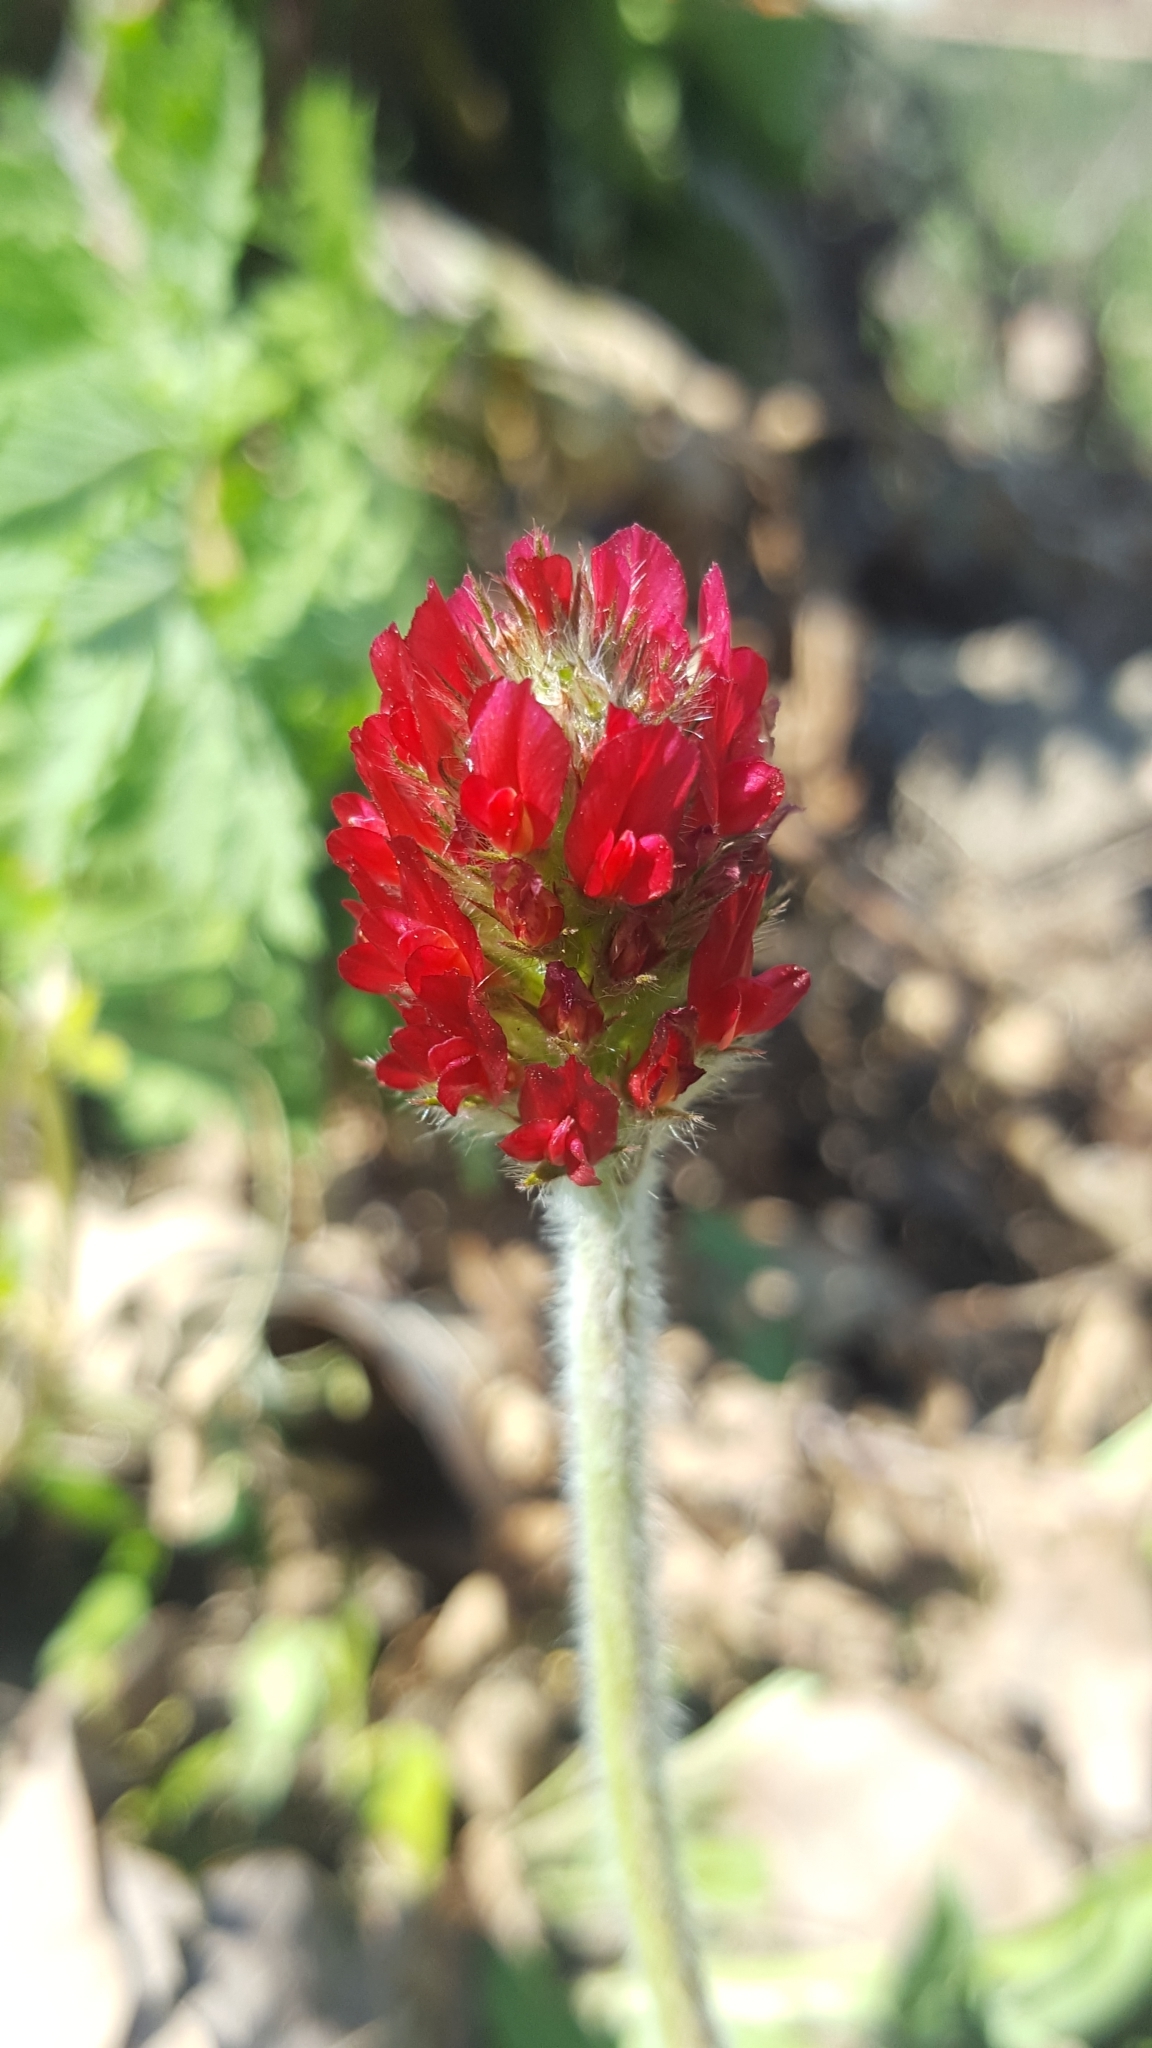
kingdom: Plantae
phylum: Tracheophyta
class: Magnoliopsida
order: Fabales
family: Fabaceae
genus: Trifolium
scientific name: Trifolium incarnatum
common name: Crimson clover
